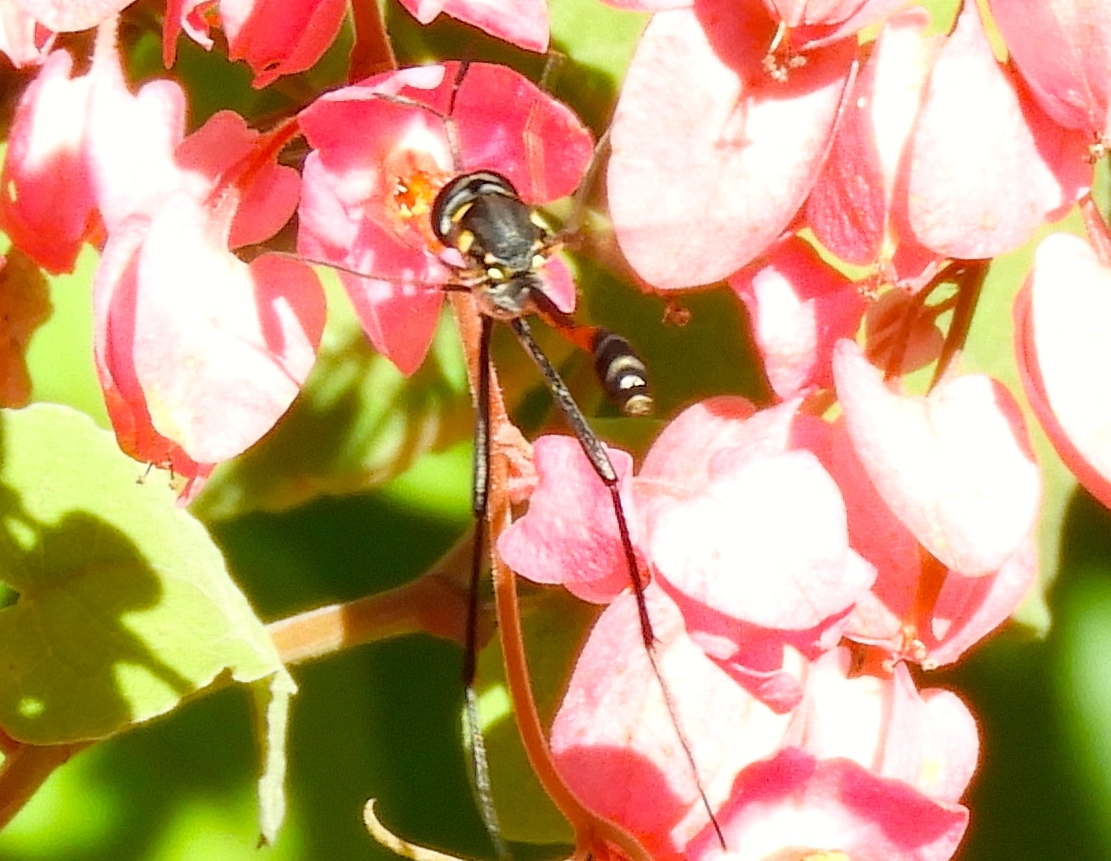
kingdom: Animalia
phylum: Arthropoda
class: Insecta
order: Diptera
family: Bombyliidae
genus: Systropus
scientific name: Systropus
